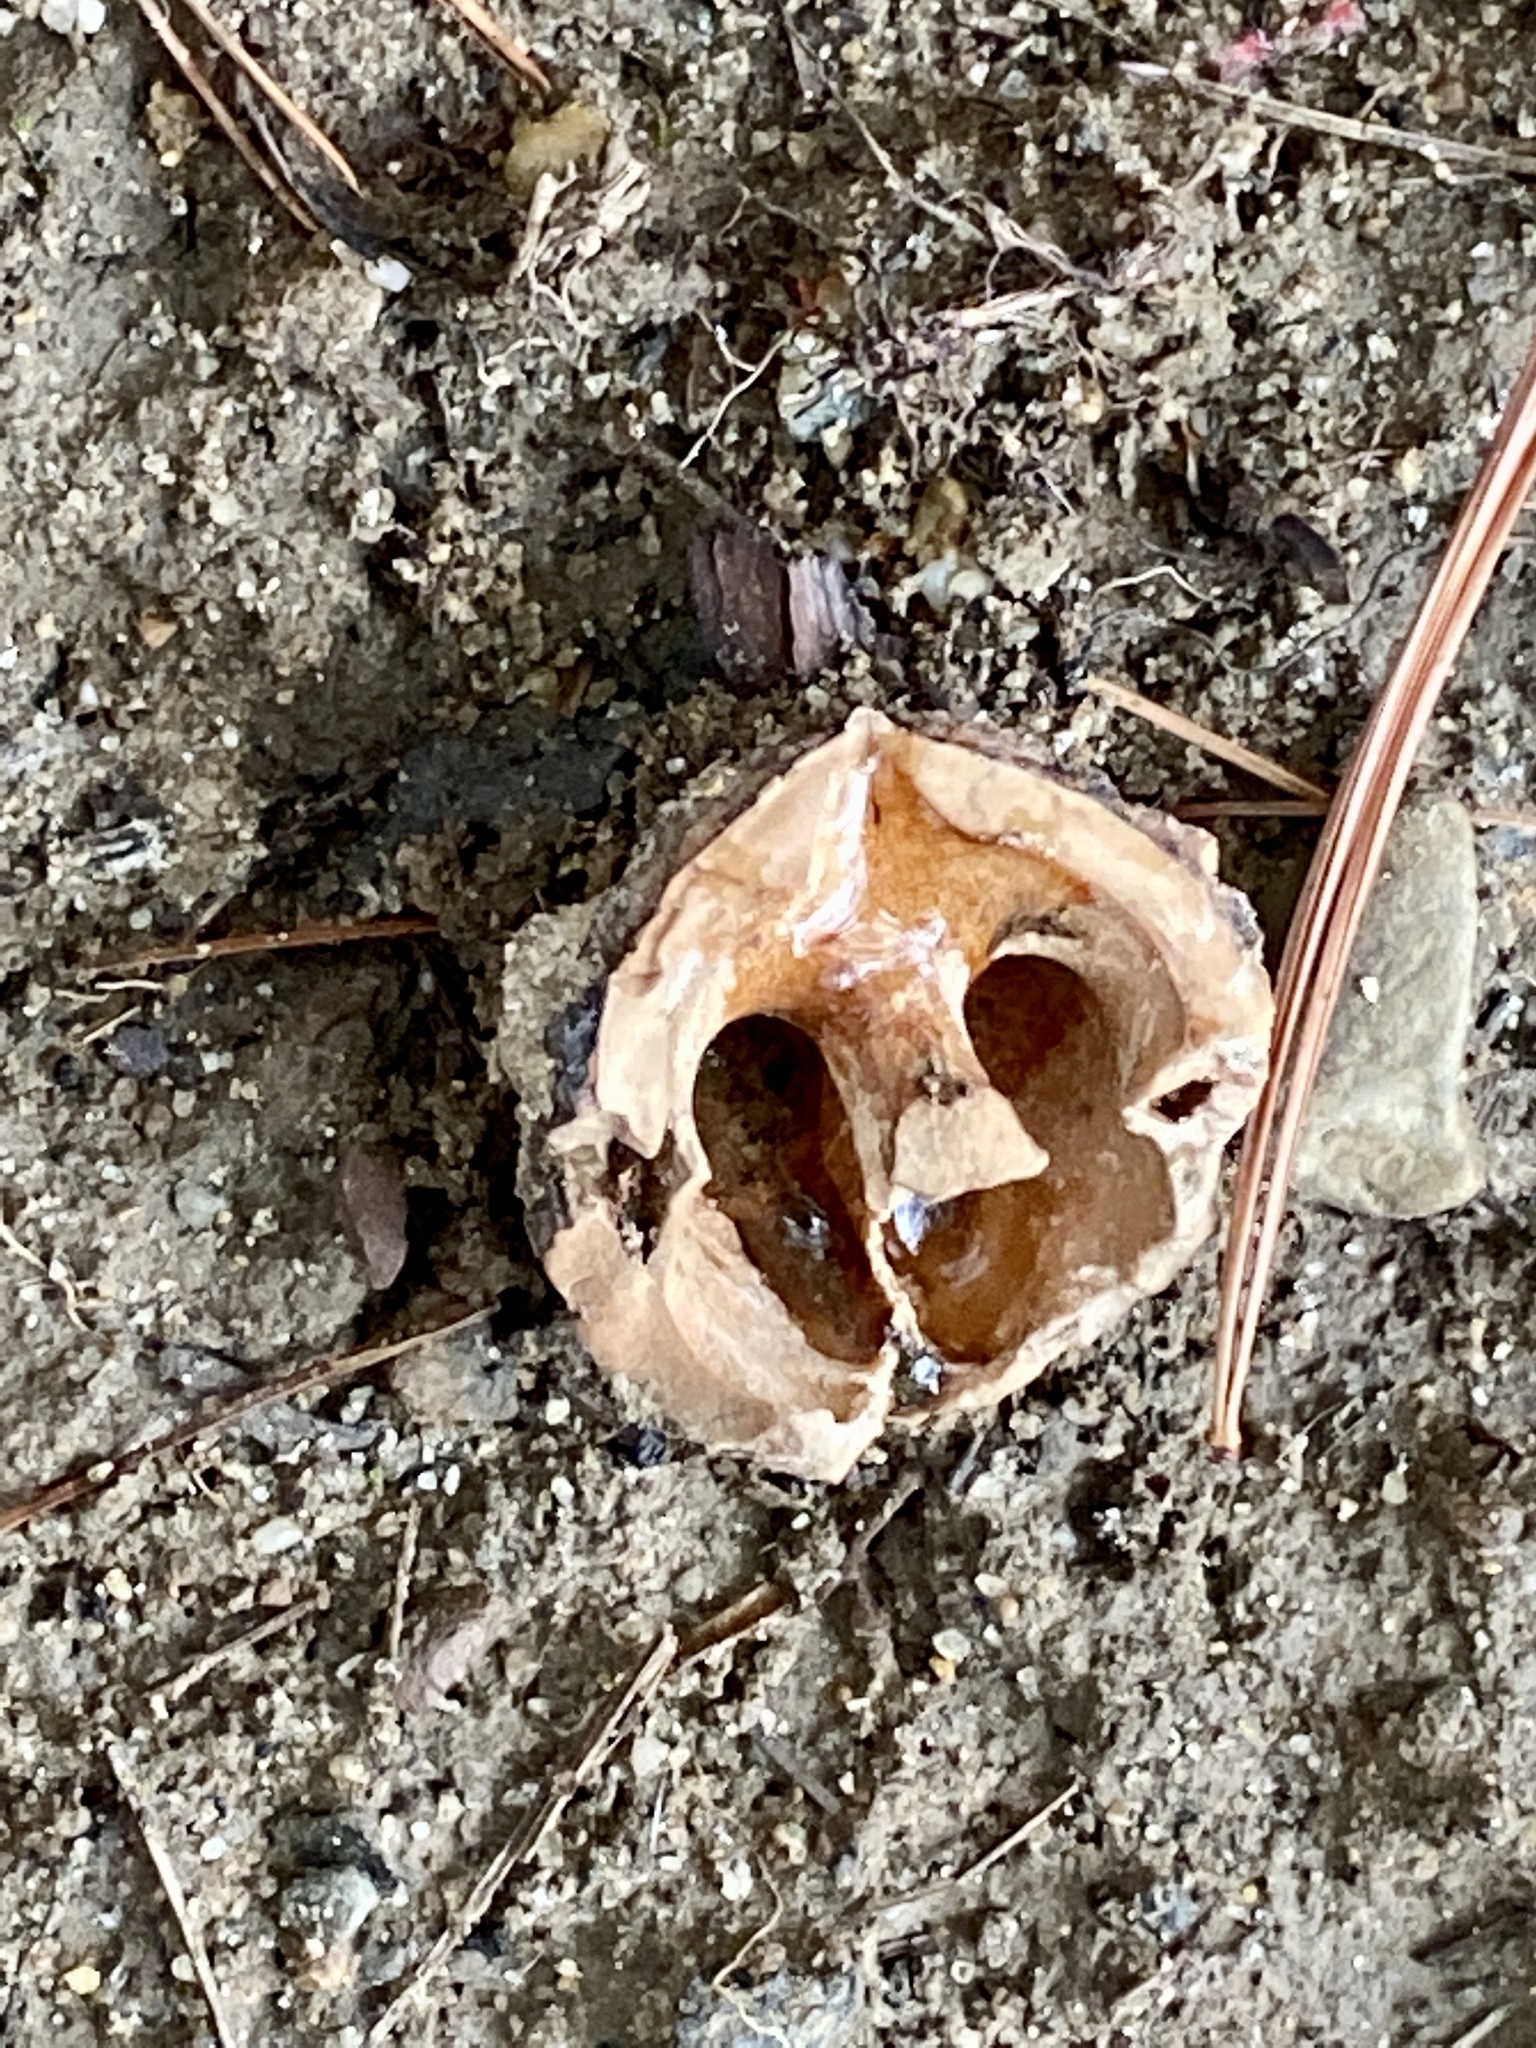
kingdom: Plantae
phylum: Tracheophyta
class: Magnoliopsida
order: Fagales
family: Juglandaceae
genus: Juglans
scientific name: Juglans nigra
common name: Black walnut
